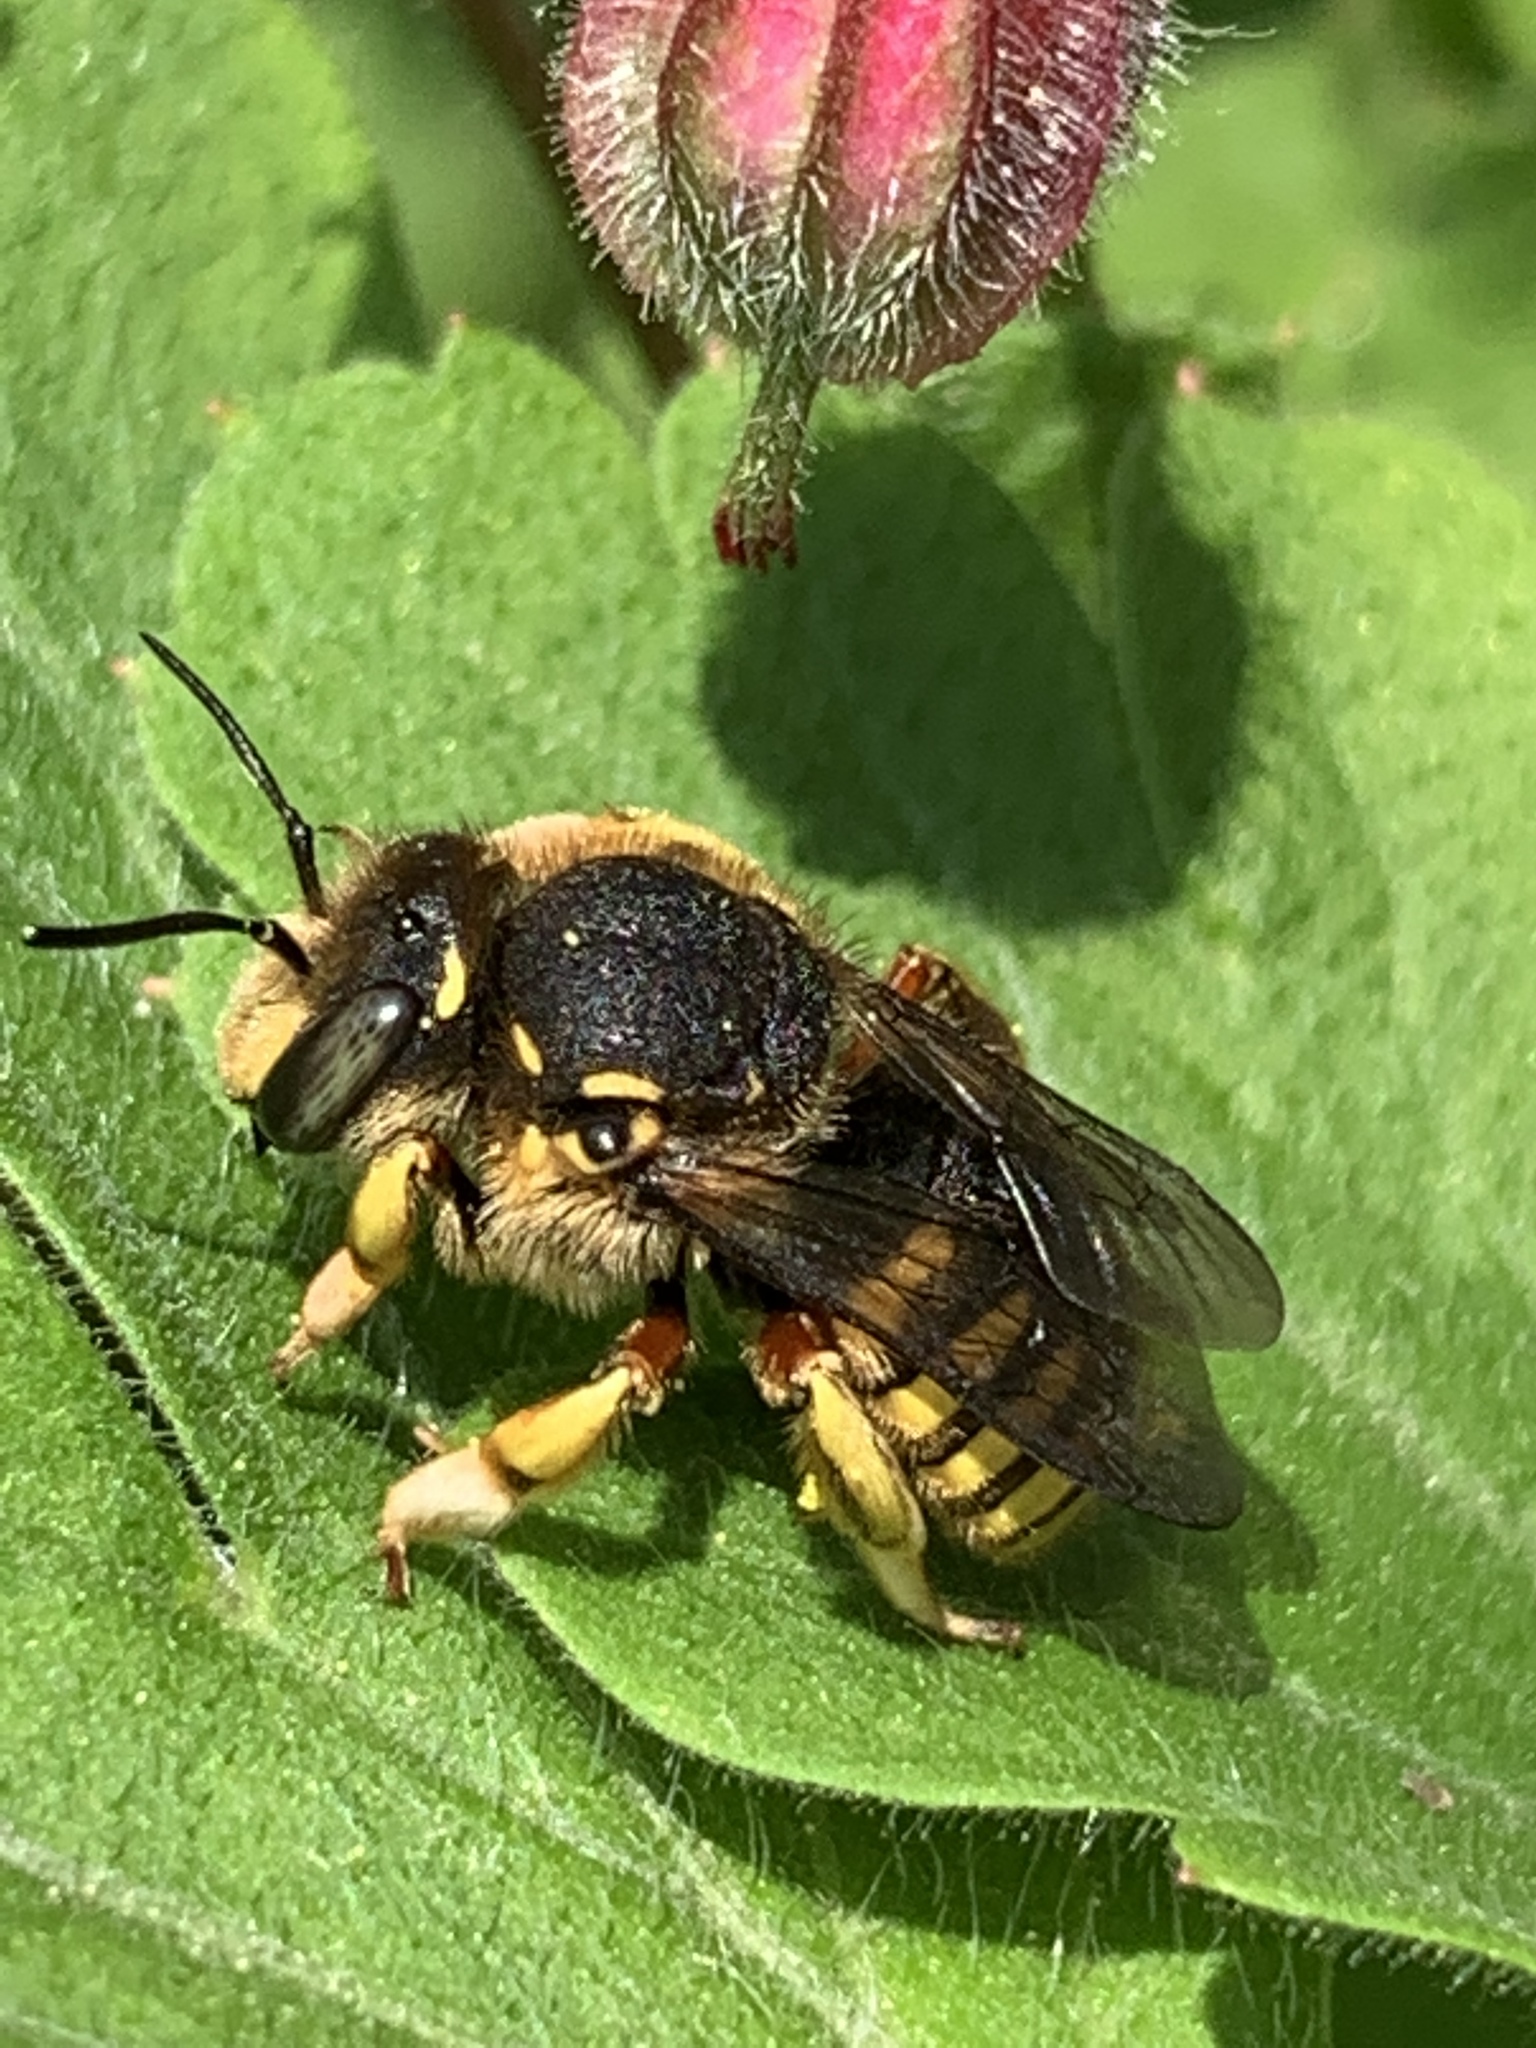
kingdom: Animalia
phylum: Arthropoda
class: Insecta
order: Hymenoptera
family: Megachilidae
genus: Anthidium
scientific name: Anthidium manicatum
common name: Wool carder bee
